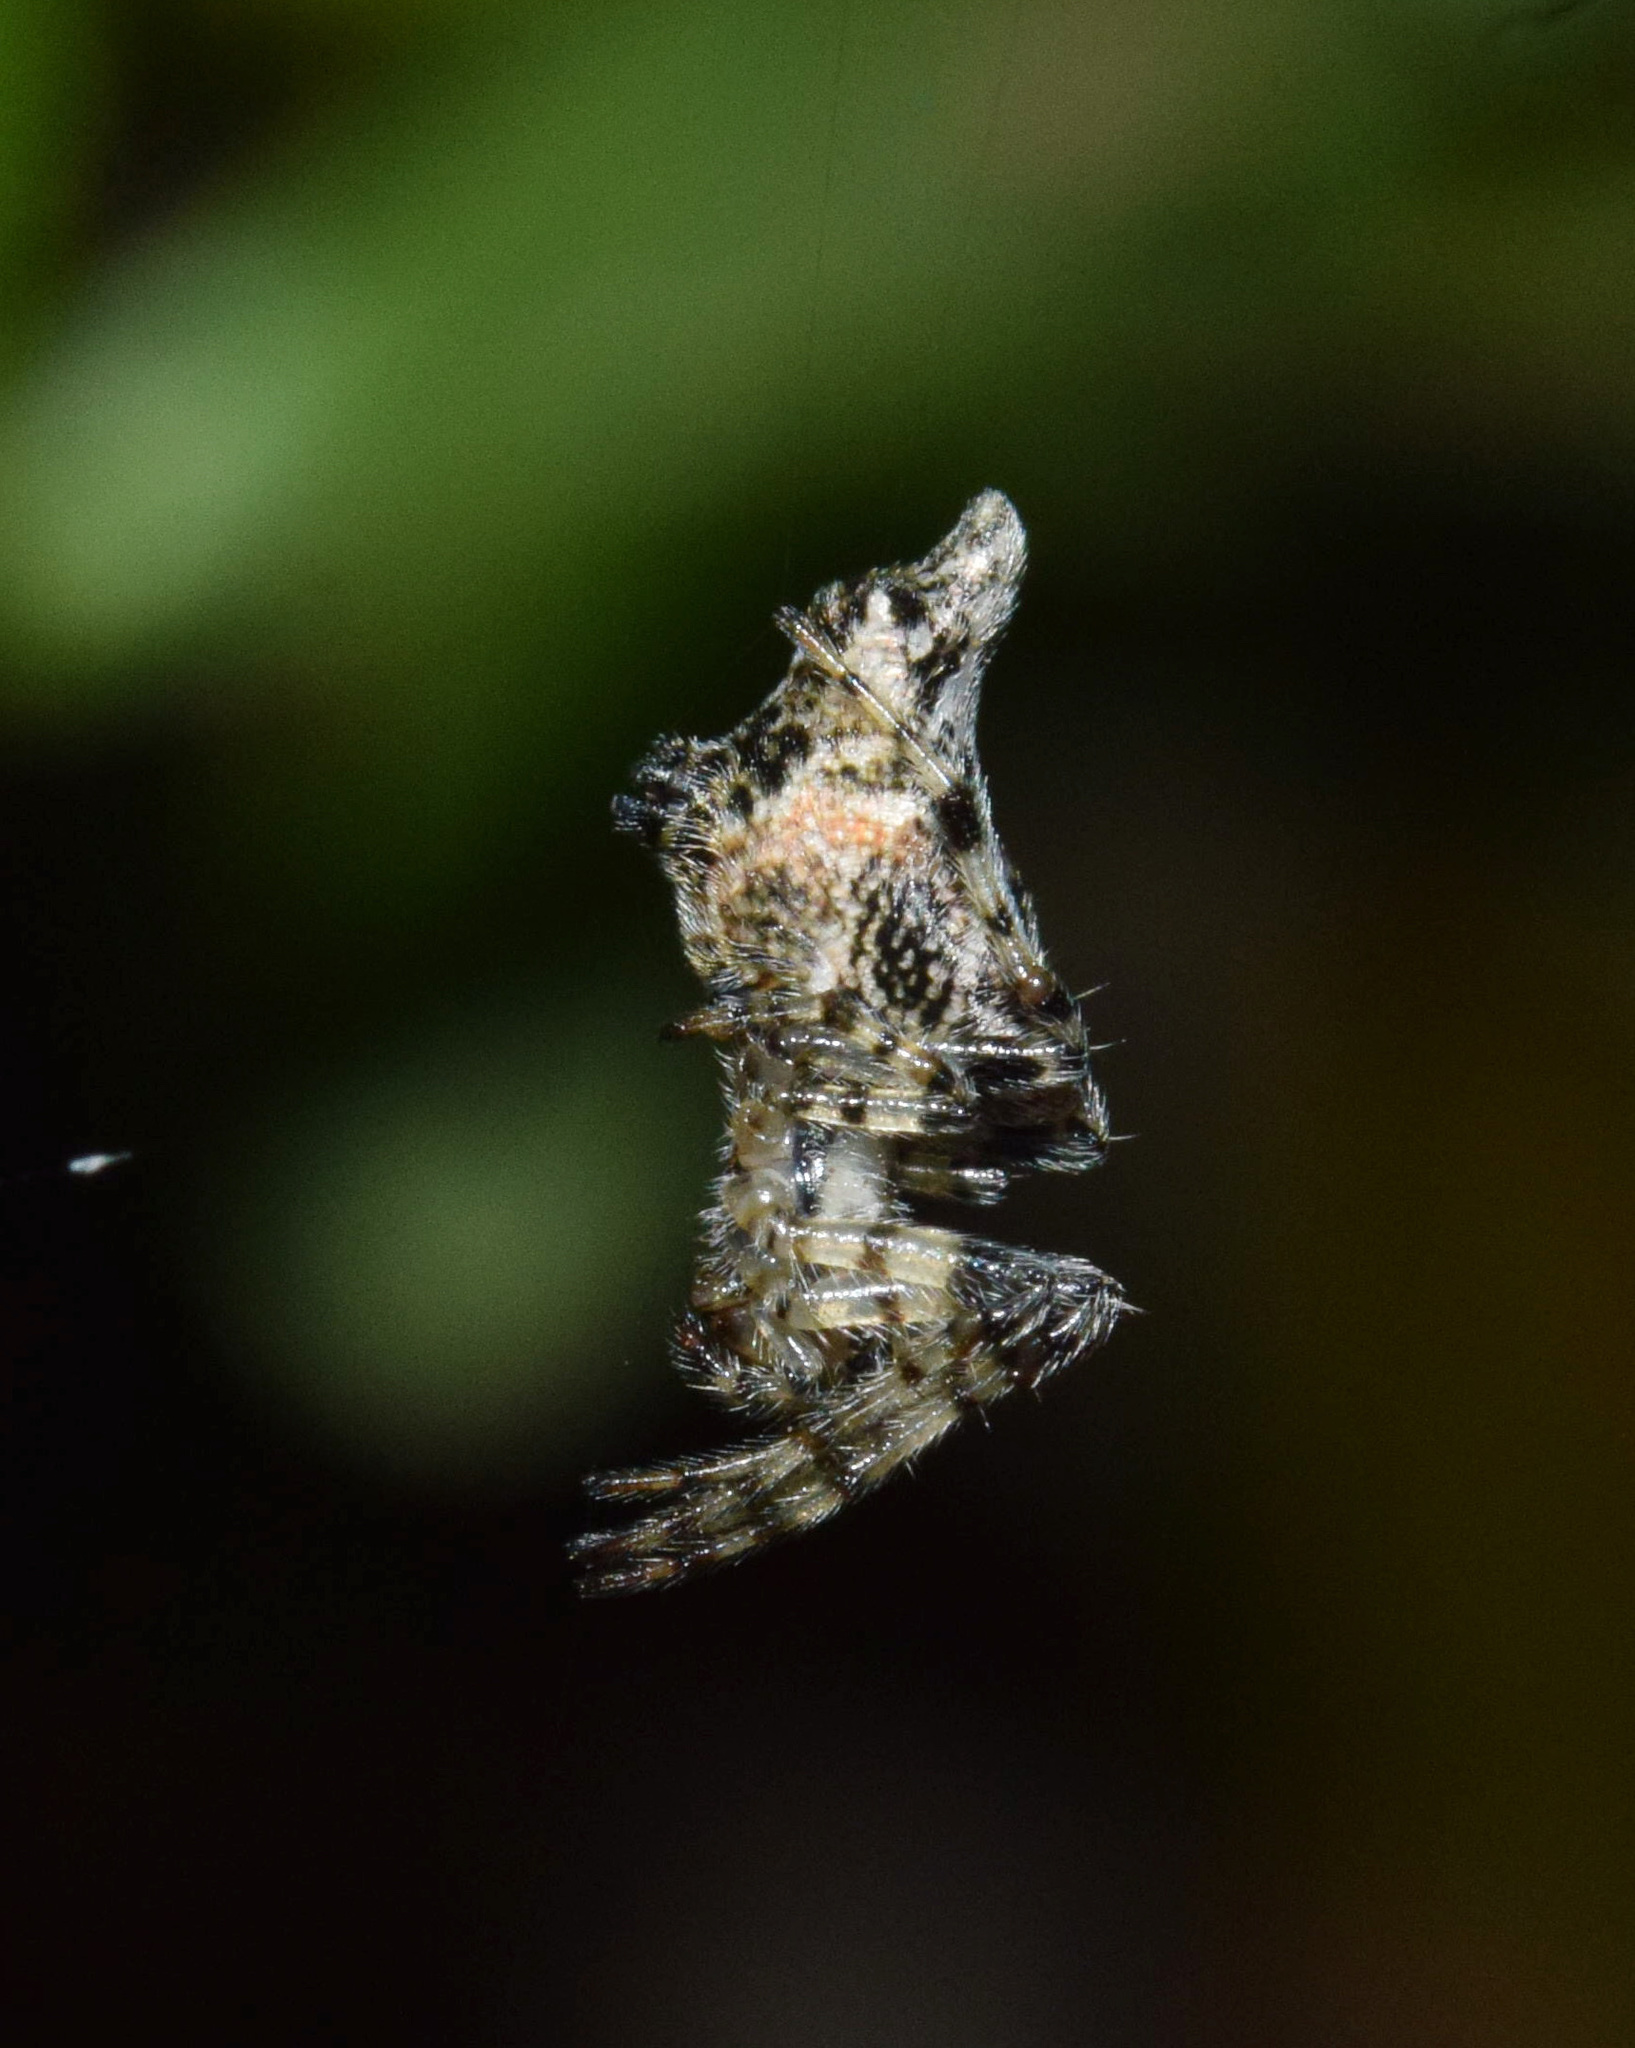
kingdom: Animalia
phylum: Arthropoda
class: Arachnida
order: Araneae
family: Araneidae
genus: Cyclosa
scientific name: Cyclosa insulana
